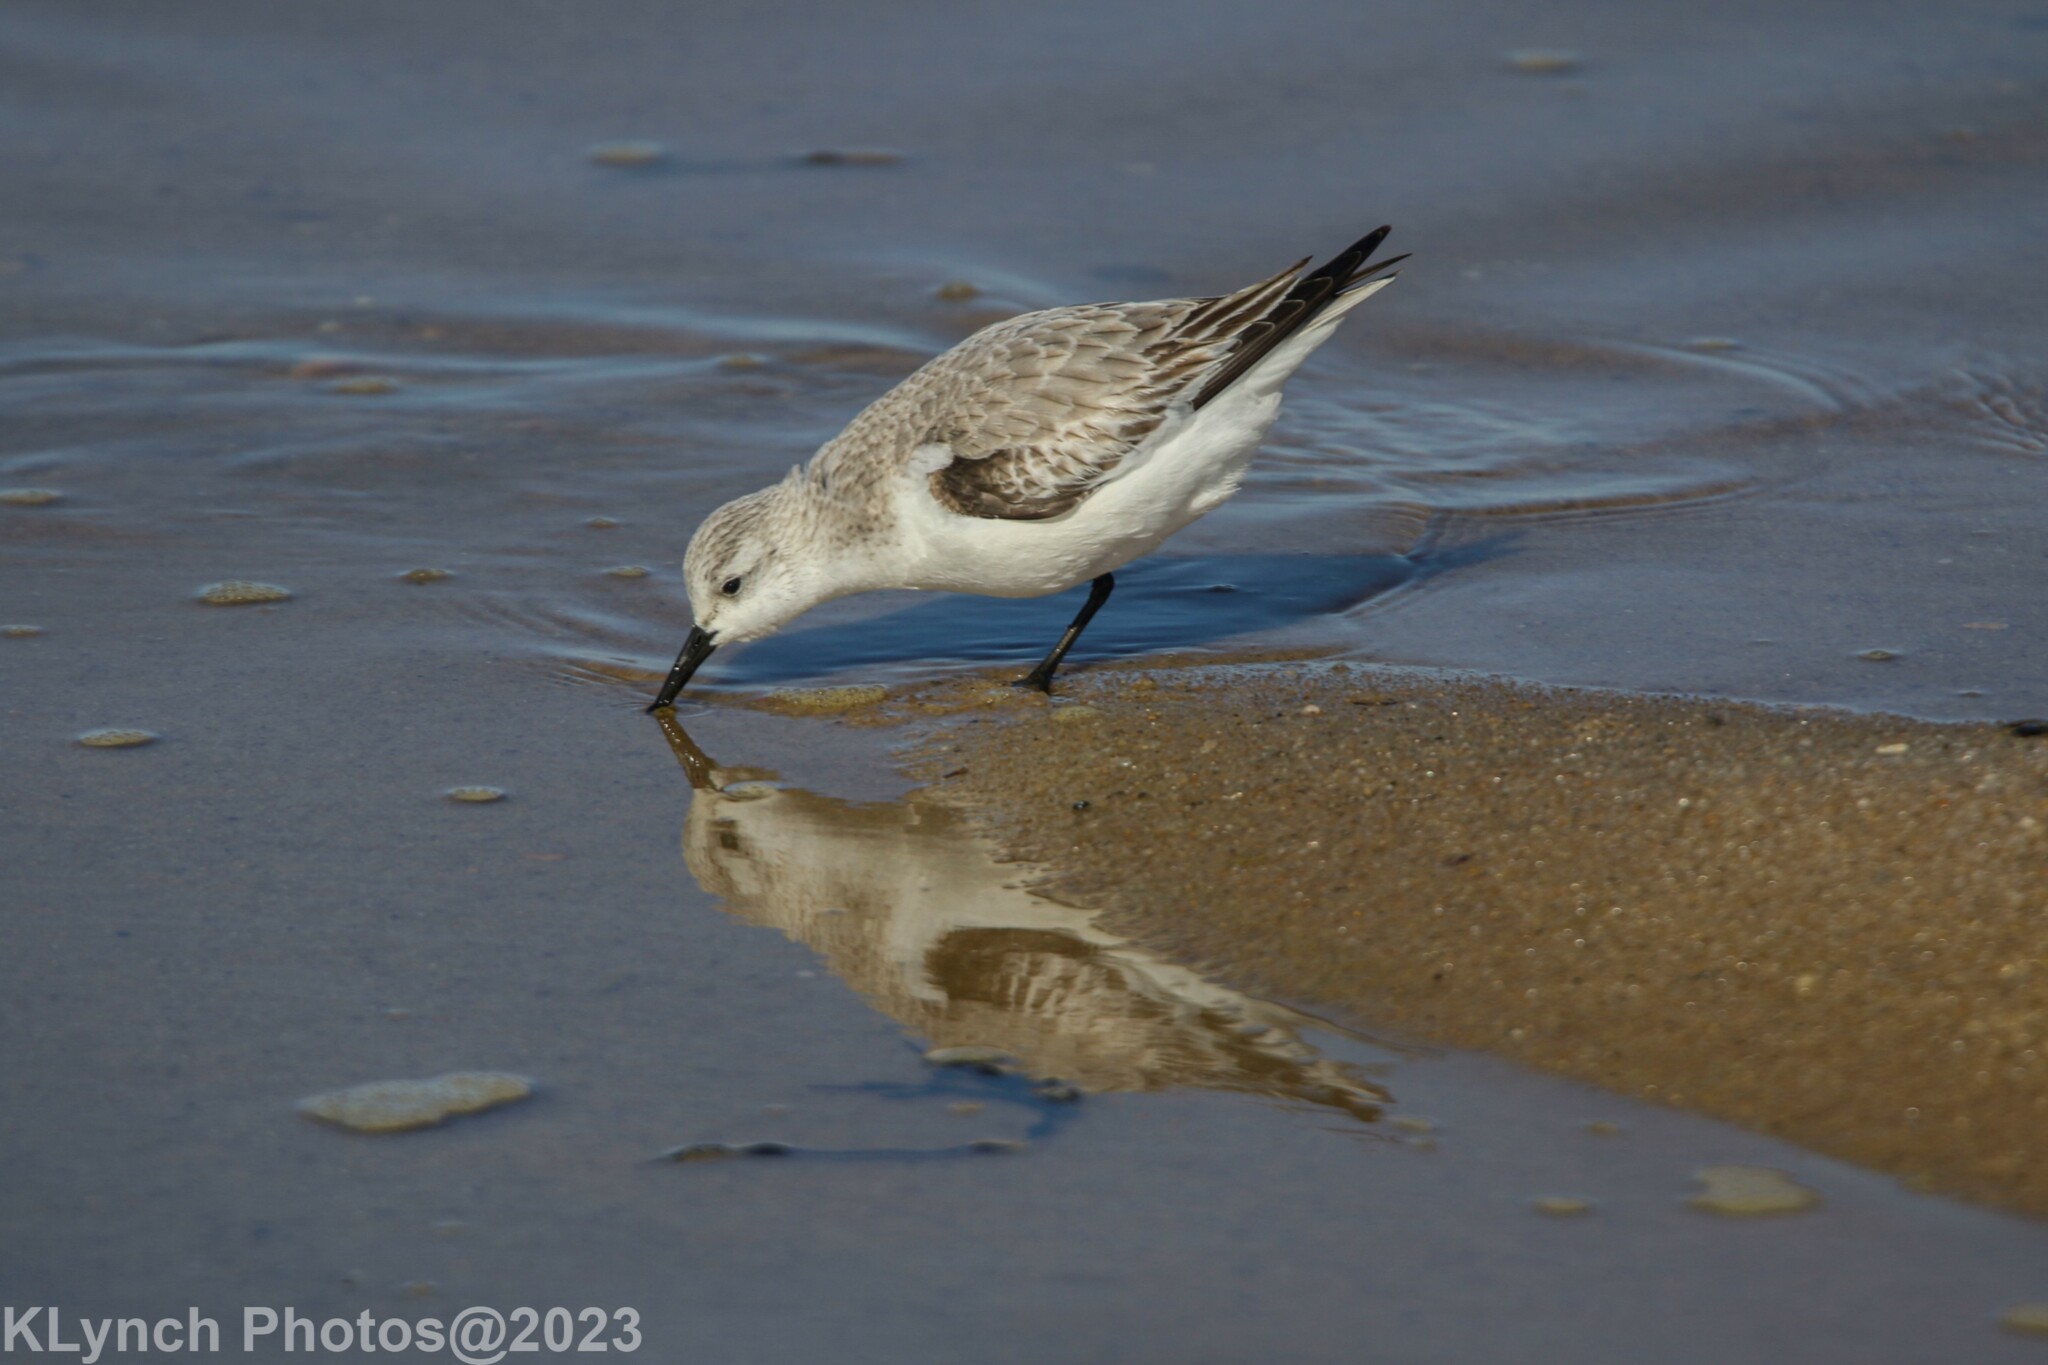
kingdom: Animalia
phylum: Chordata
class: Aves
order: Charadriiformes
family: Scolopacidae
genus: Calidris
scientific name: Calidris alba
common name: Sanderling
